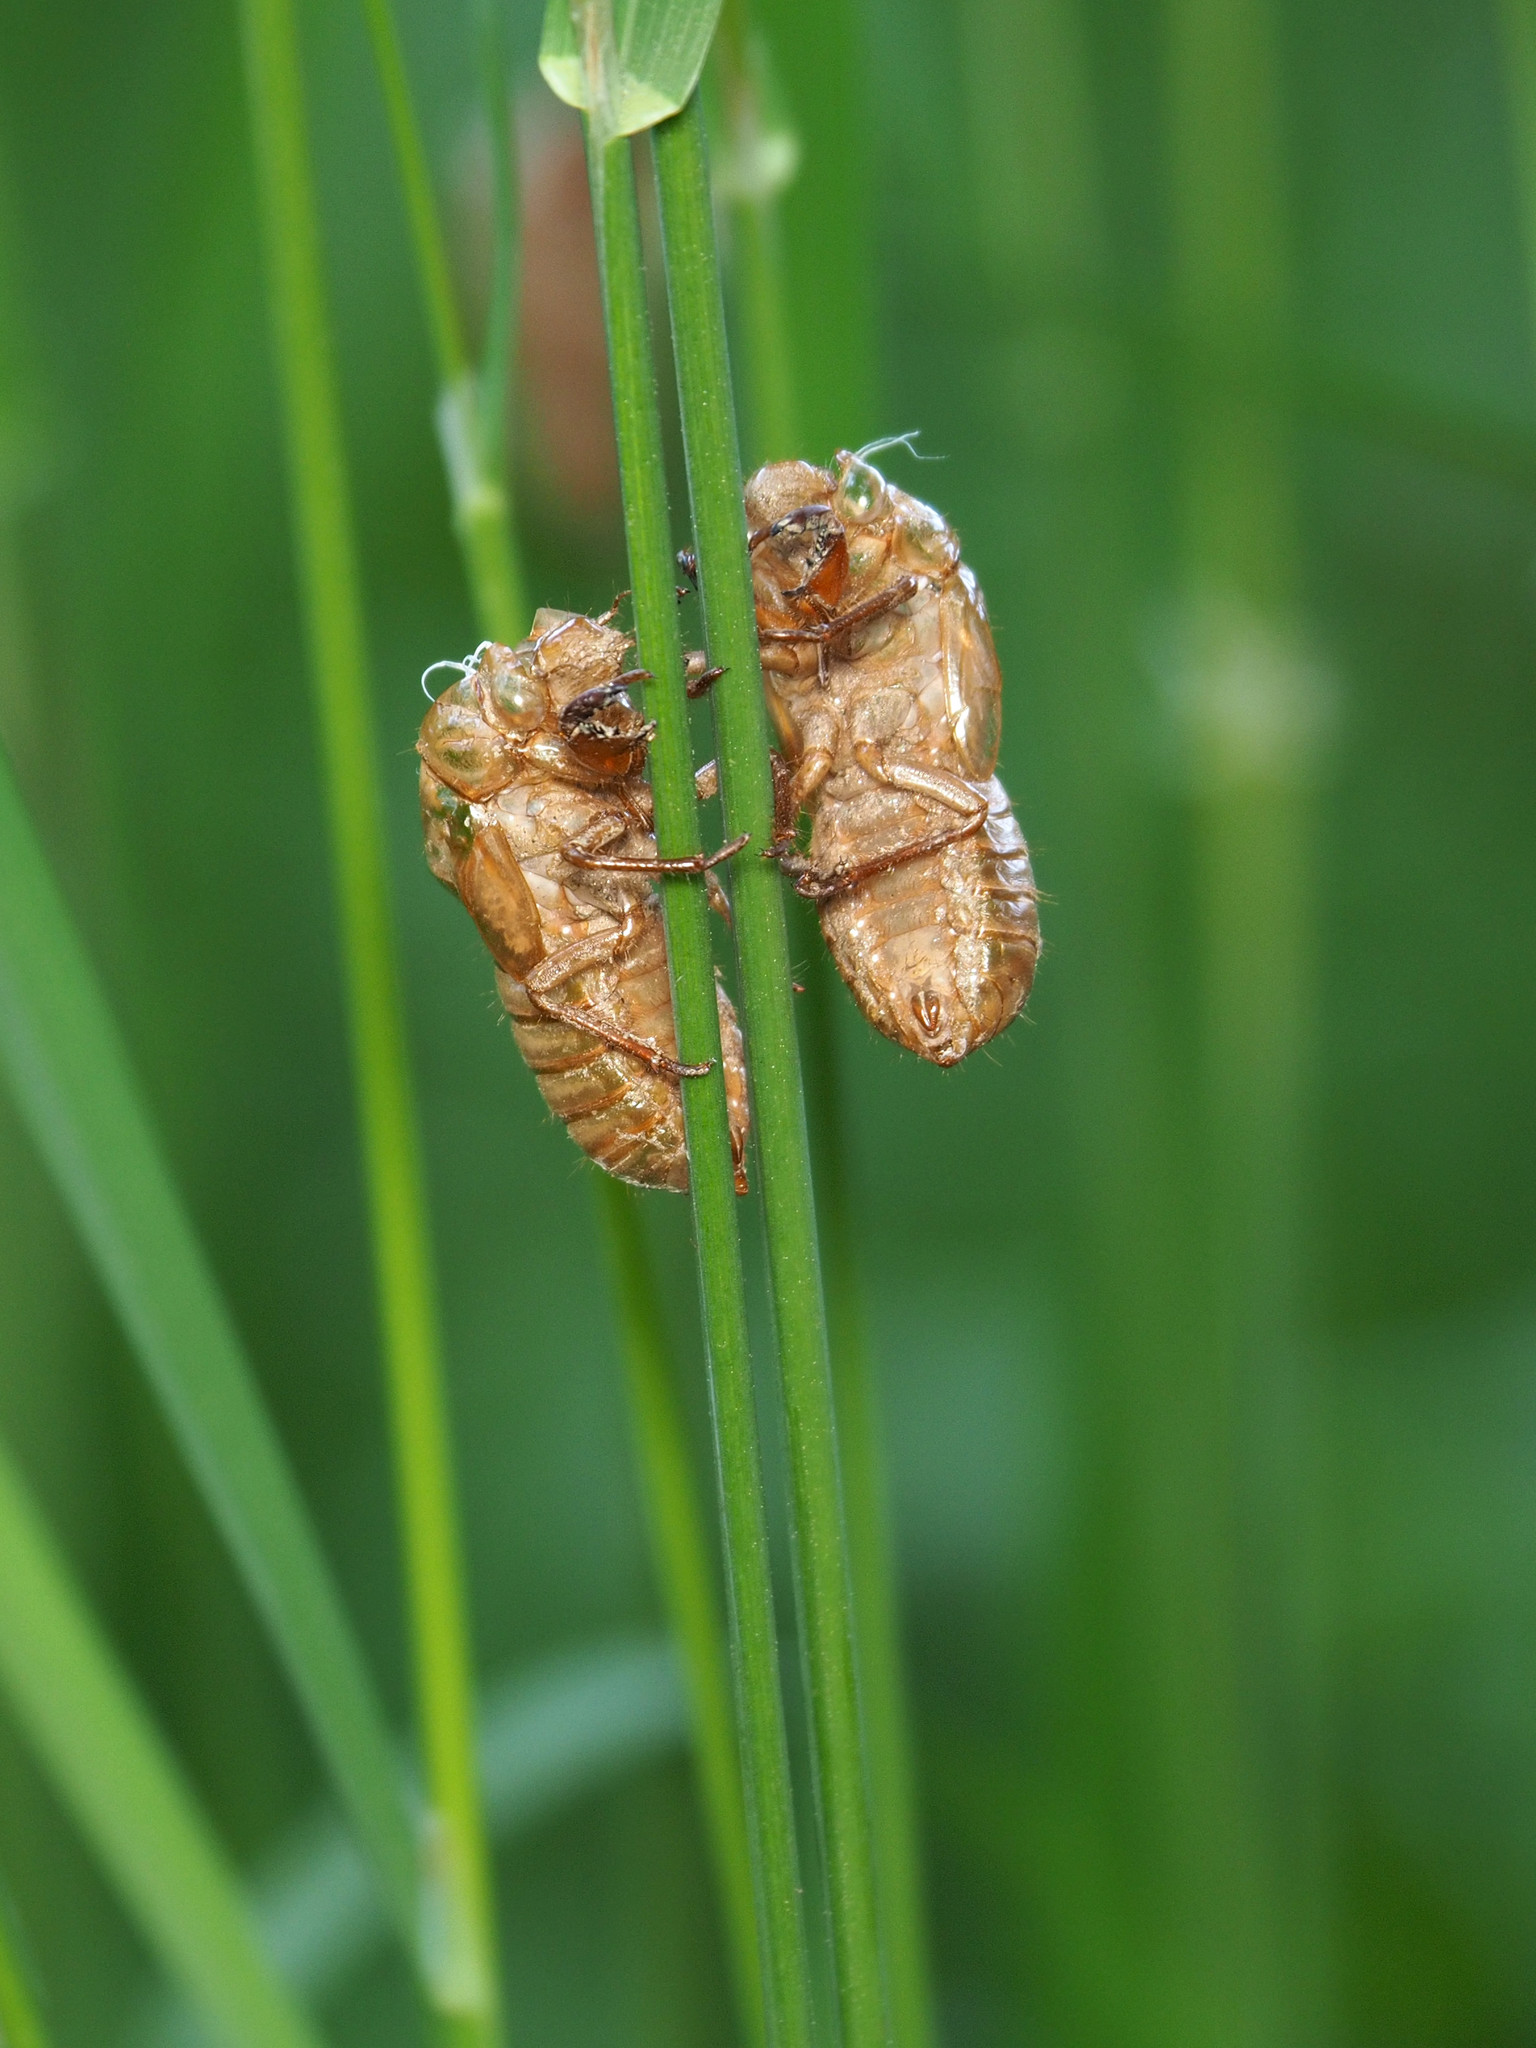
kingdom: Animalia
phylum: Arthropoda
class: Insecta
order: Hemiptera
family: Cicadidae
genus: Magicicada
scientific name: Magicicada
